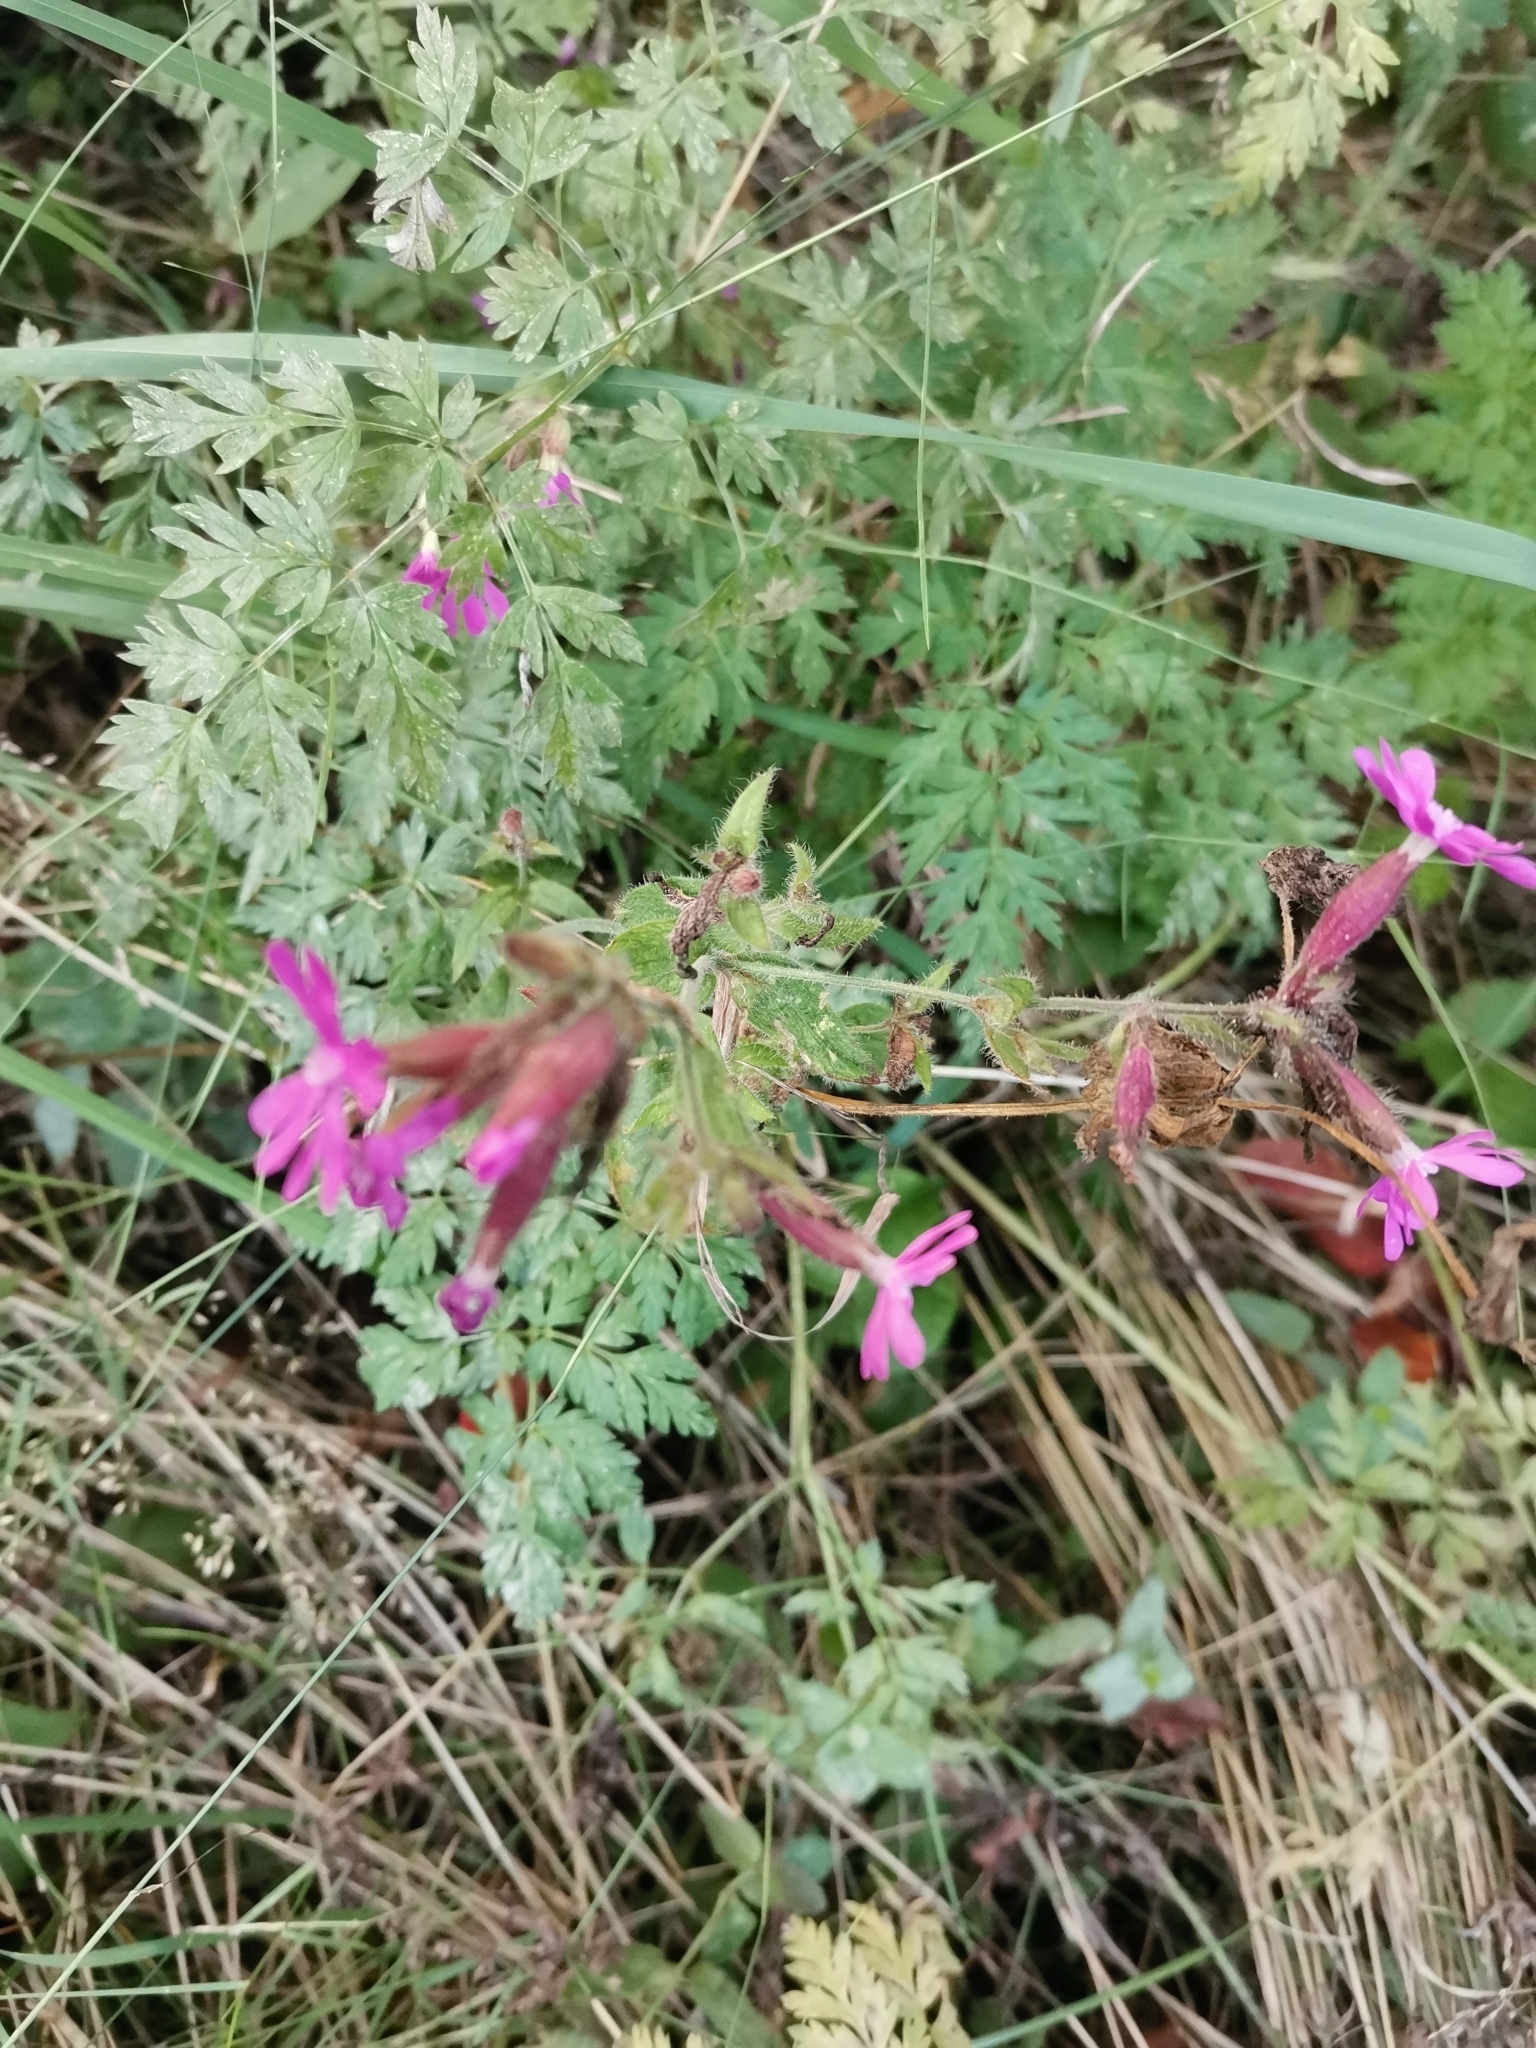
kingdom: Plantae
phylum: Tracheophyta
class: Magnoliopsida
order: Caryophyllales
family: Caryophyllaceae
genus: Silene
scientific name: Silene dioica
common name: Red campion
